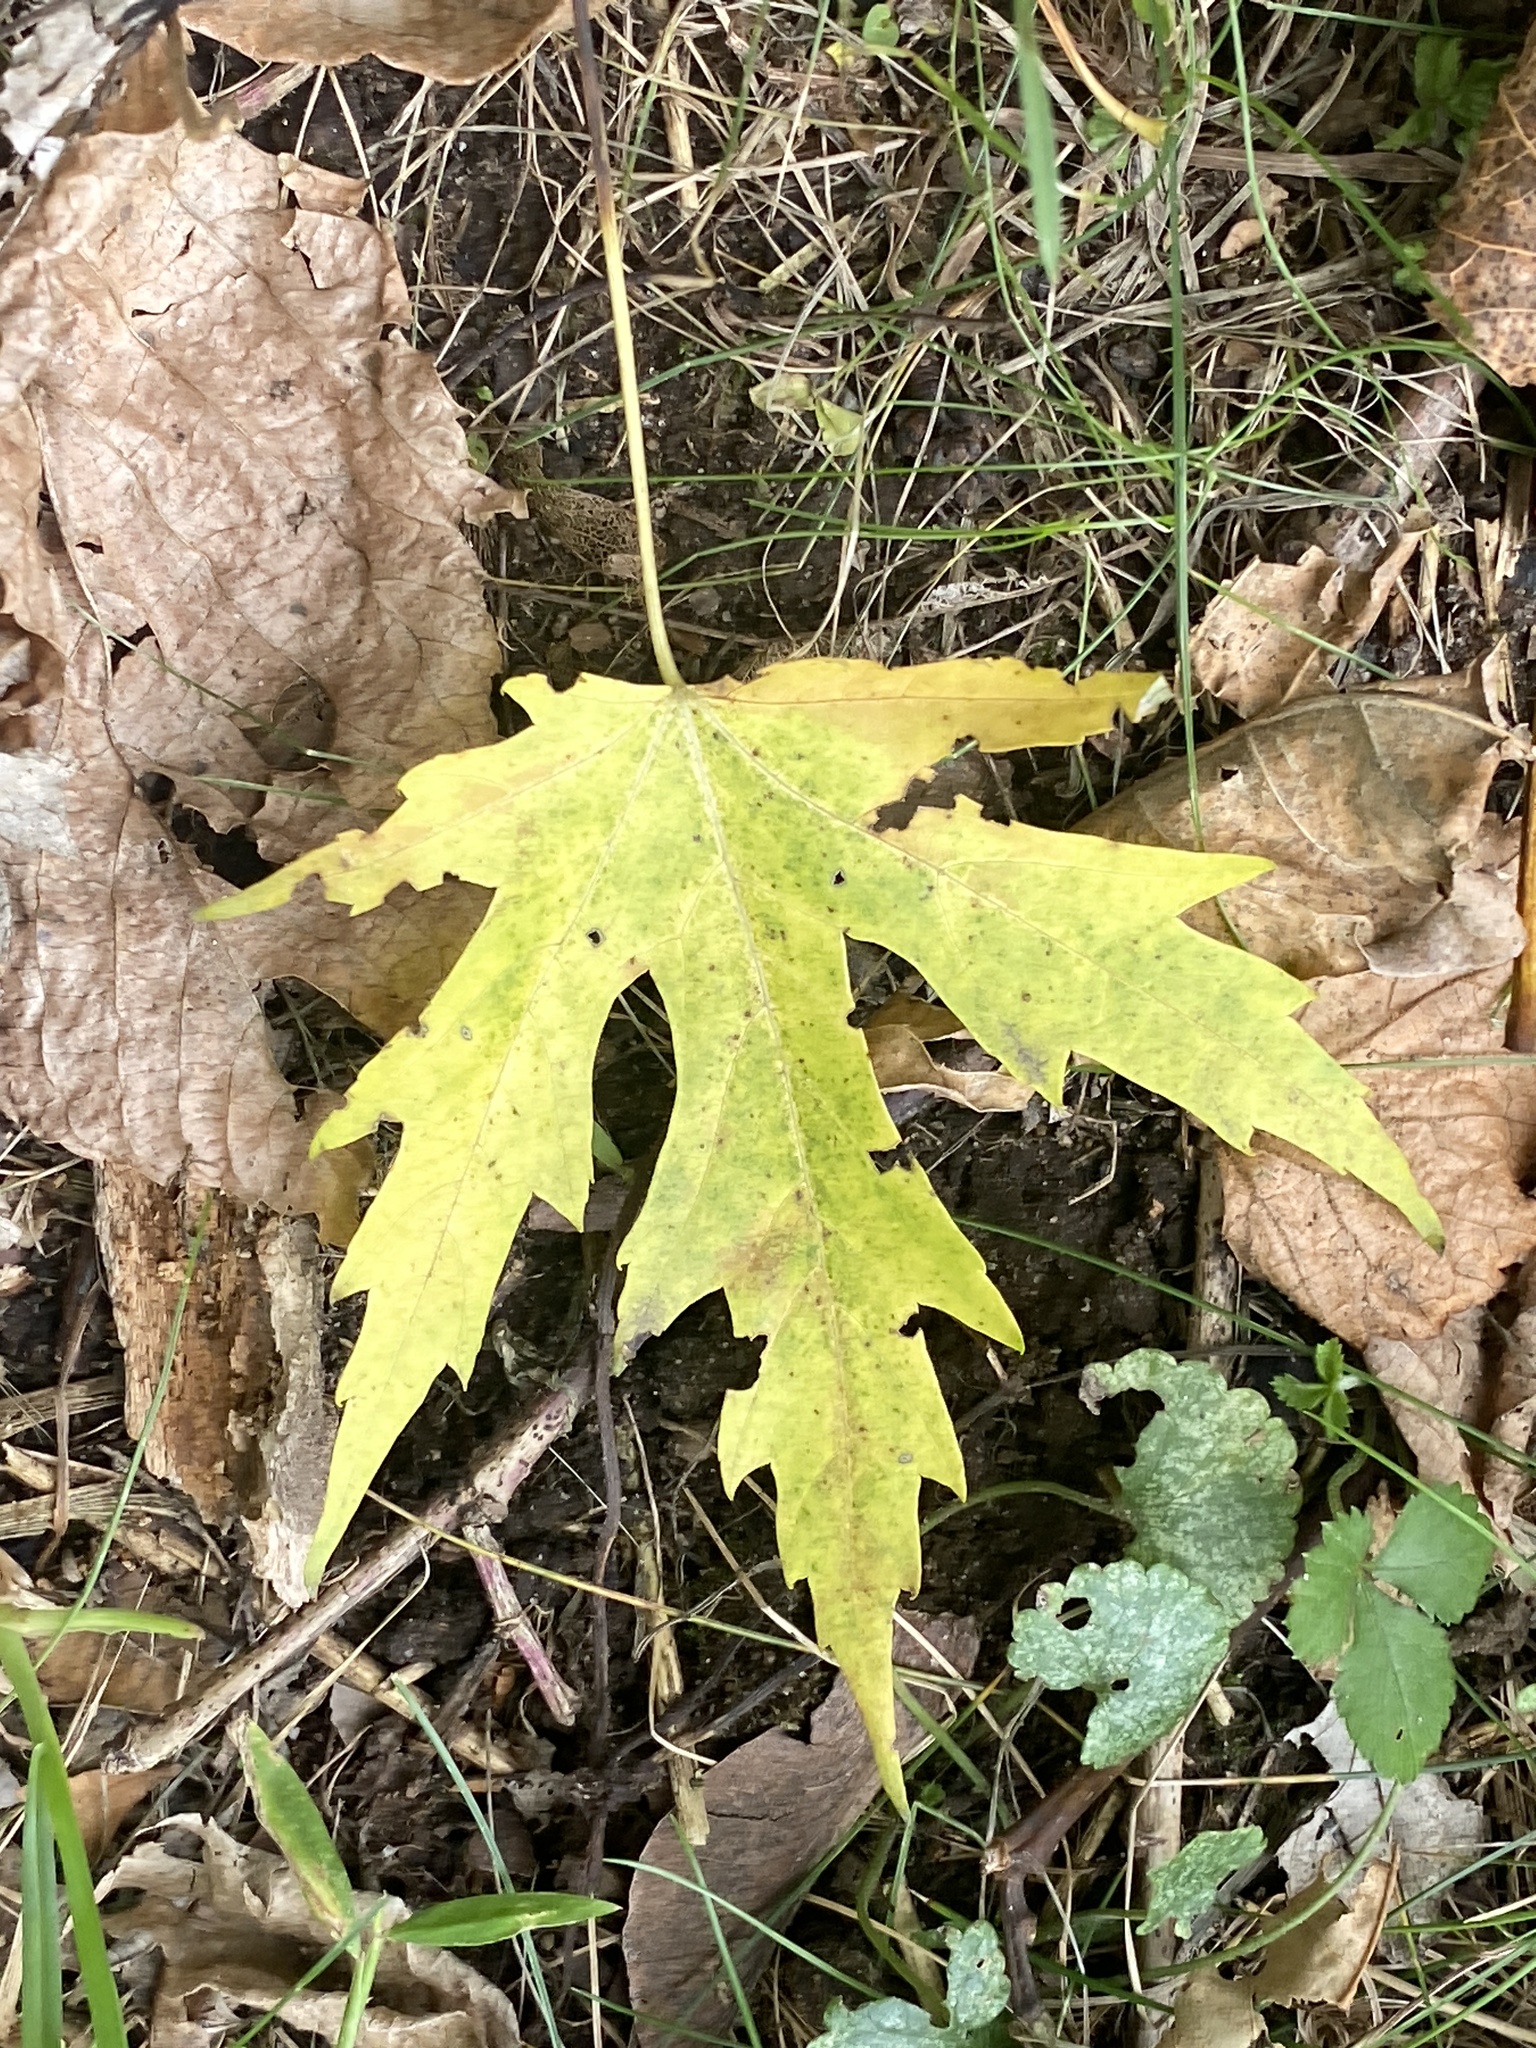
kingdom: Plantae
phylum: Tracheophyta
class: Magnoliopsida
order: Sapindales
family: Sapindaceae
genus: Acer
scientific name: Acer saccharinum
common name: Silver maple
